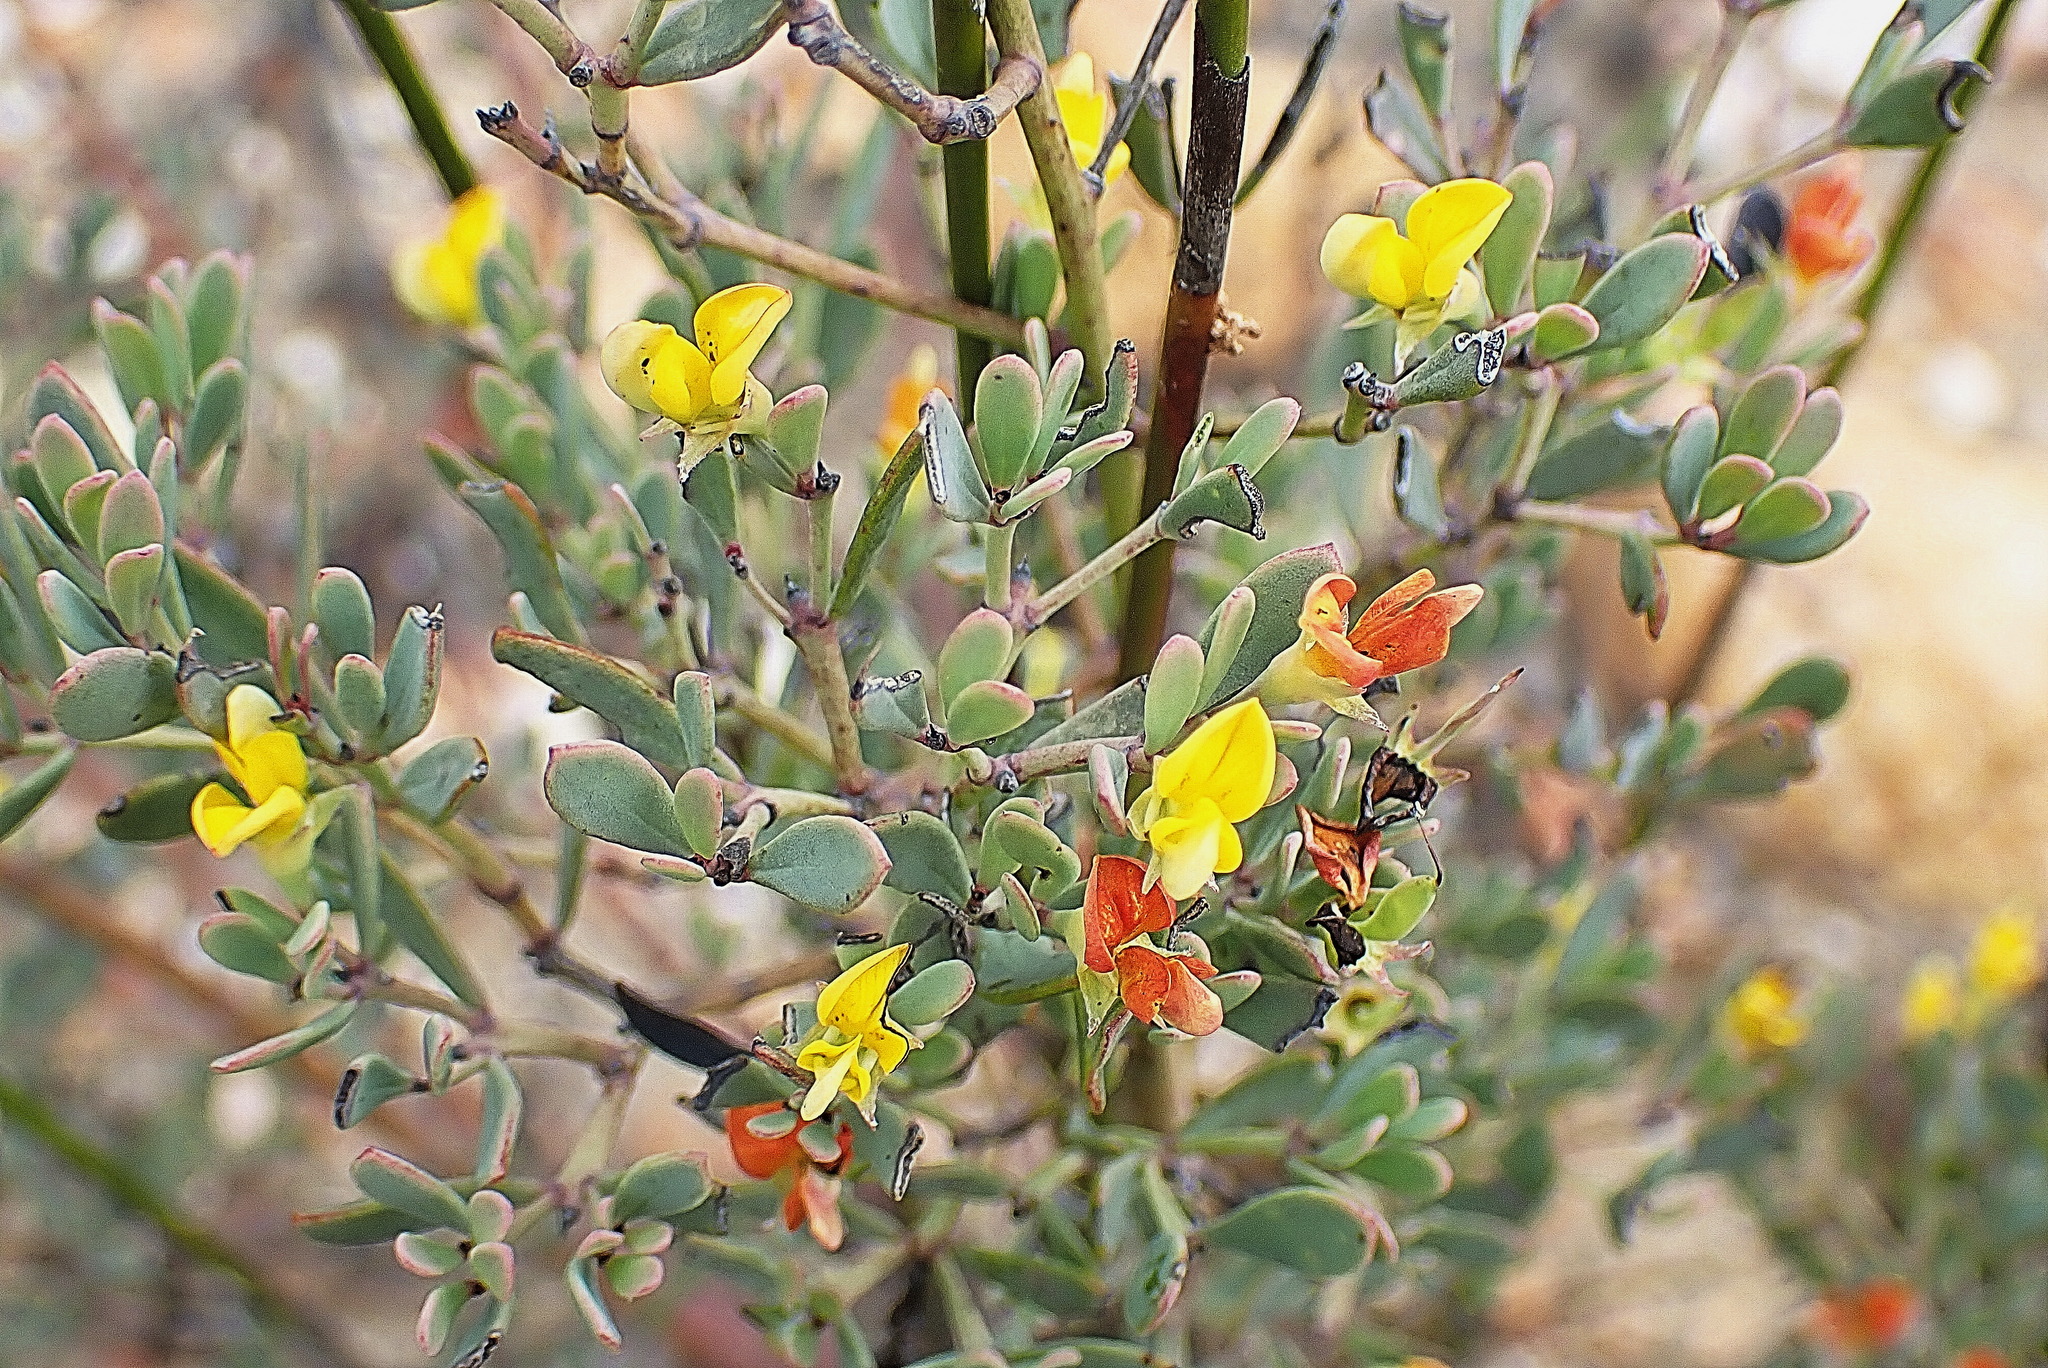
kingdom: Plantae
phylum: Tracheophyta
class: Magnoliopsida
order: Fabales
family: Fabaceae
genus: Rafnia
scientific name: Rafnia capensis
